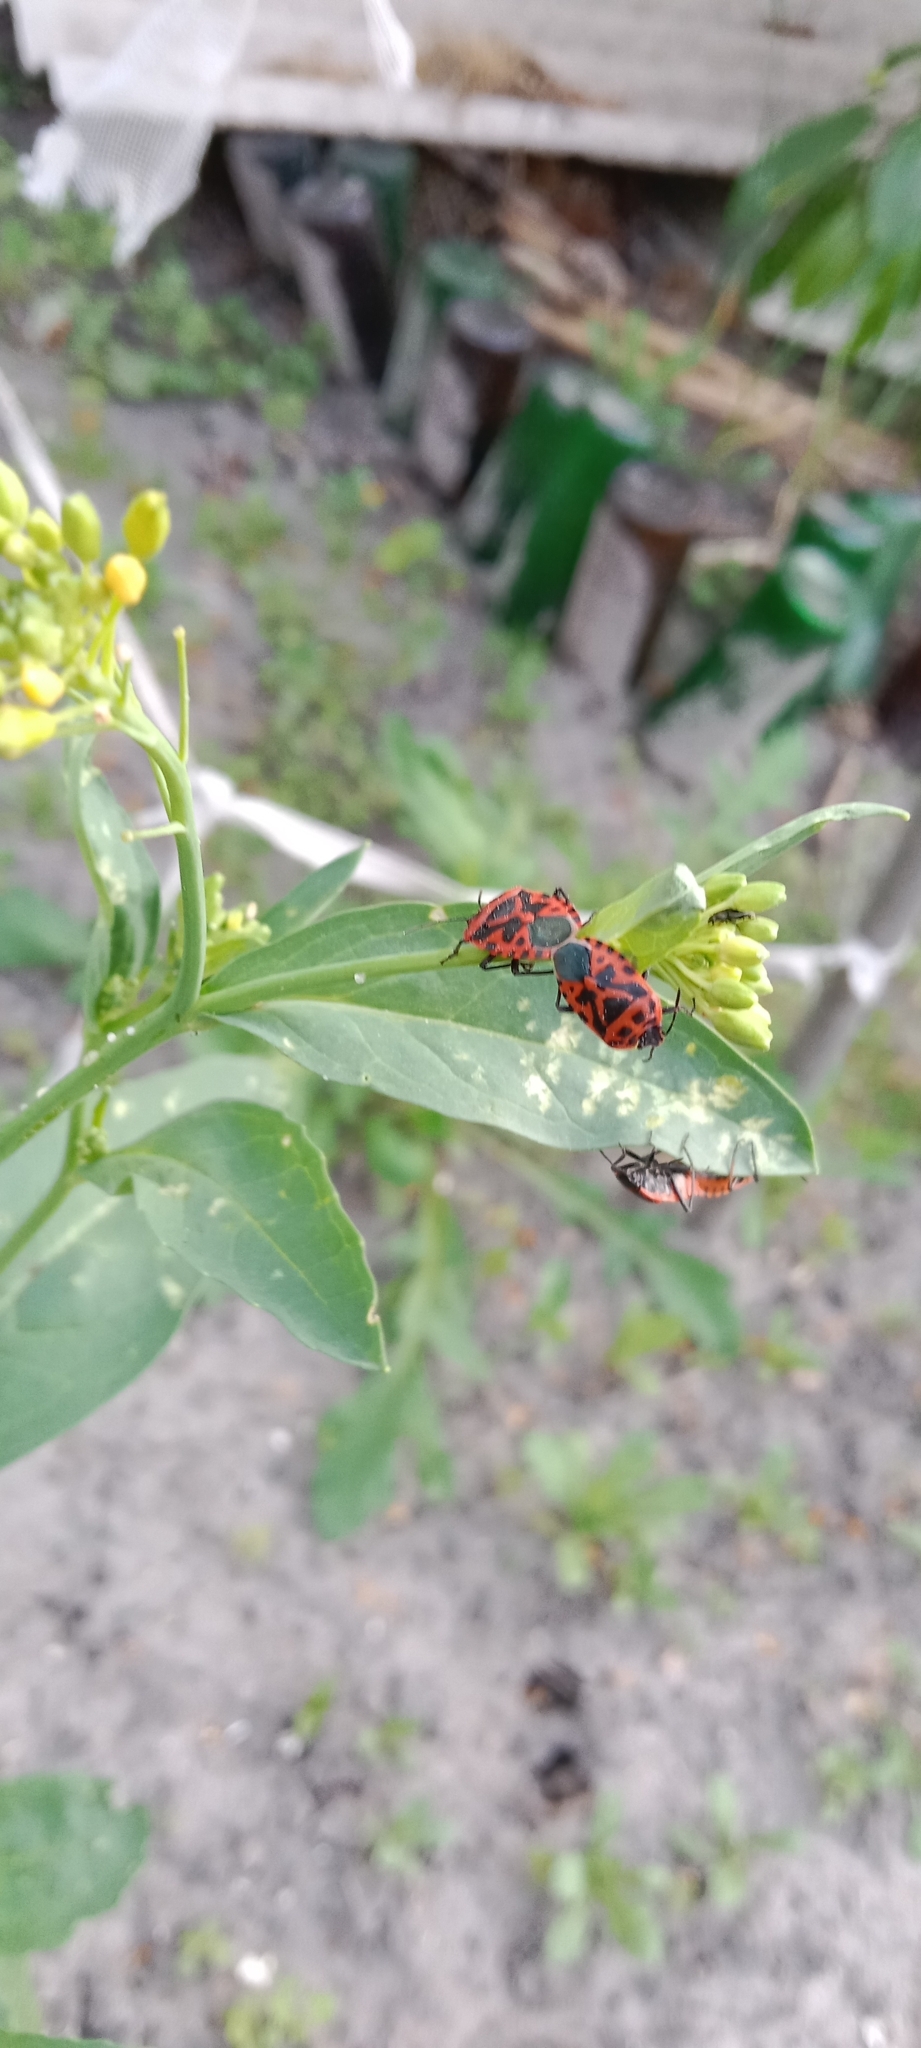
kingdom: Animalia
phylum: Arthropoda
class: Insecta
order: Hemiptera
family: Pentatomidae
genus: Eurydema
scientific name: Eurydema ventralis
